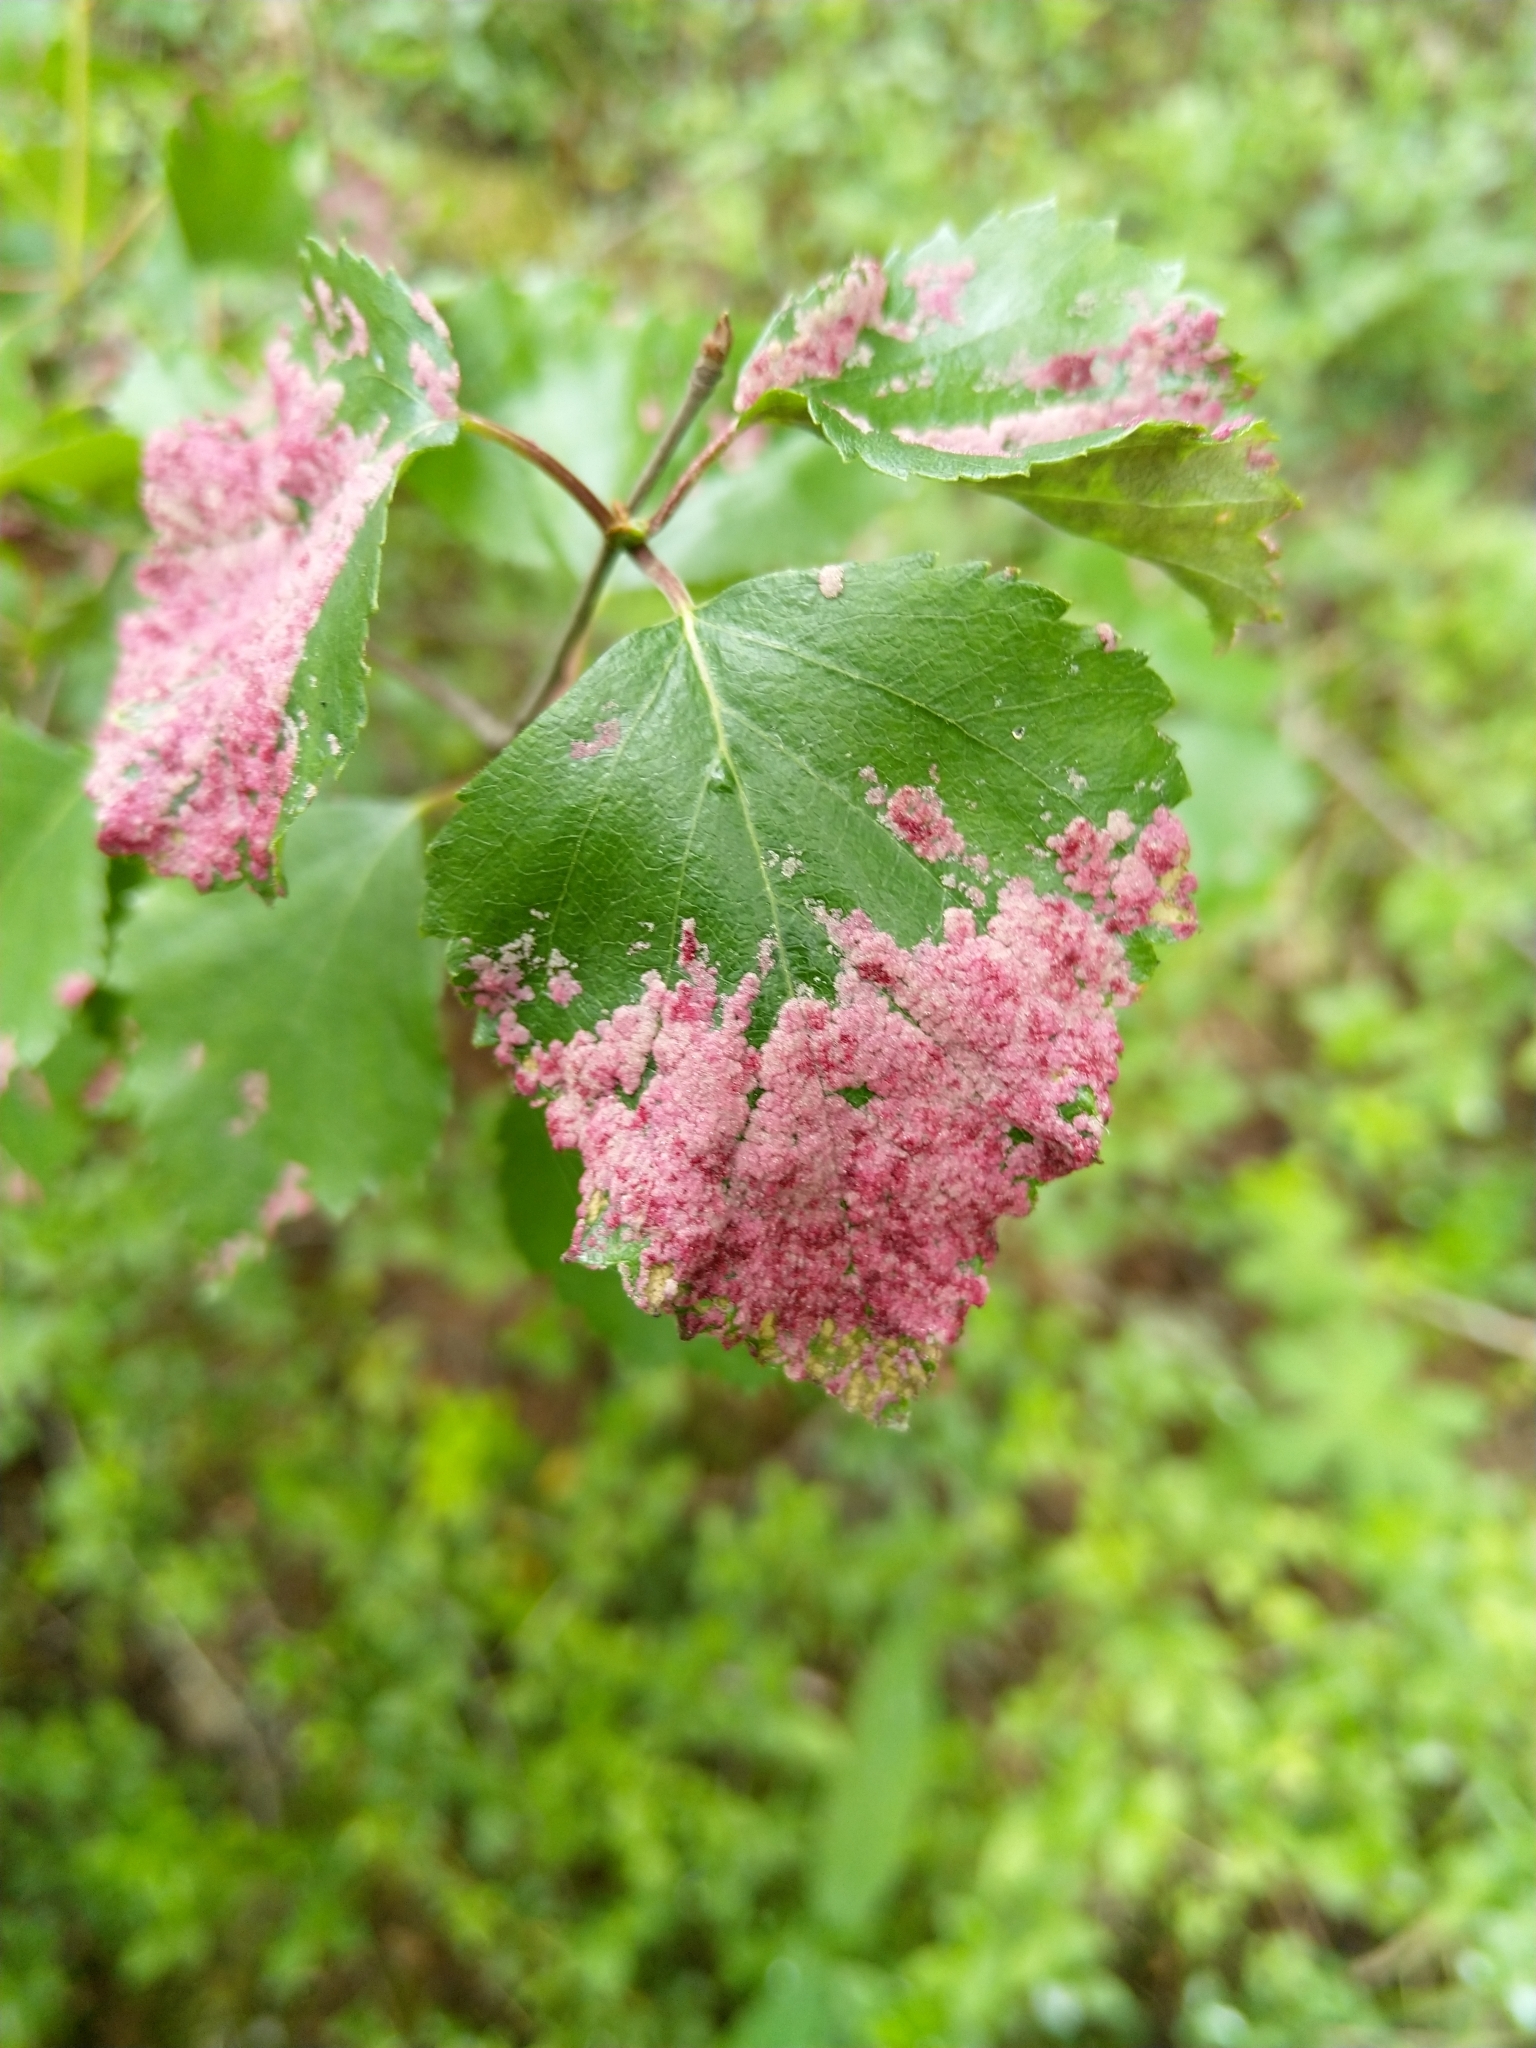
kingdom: Animalia
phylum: Arthropoda
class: Arachnida
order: Trombidiformes
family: Eriophyidae
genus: Acalitus
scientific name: Acalitus longisetosus
